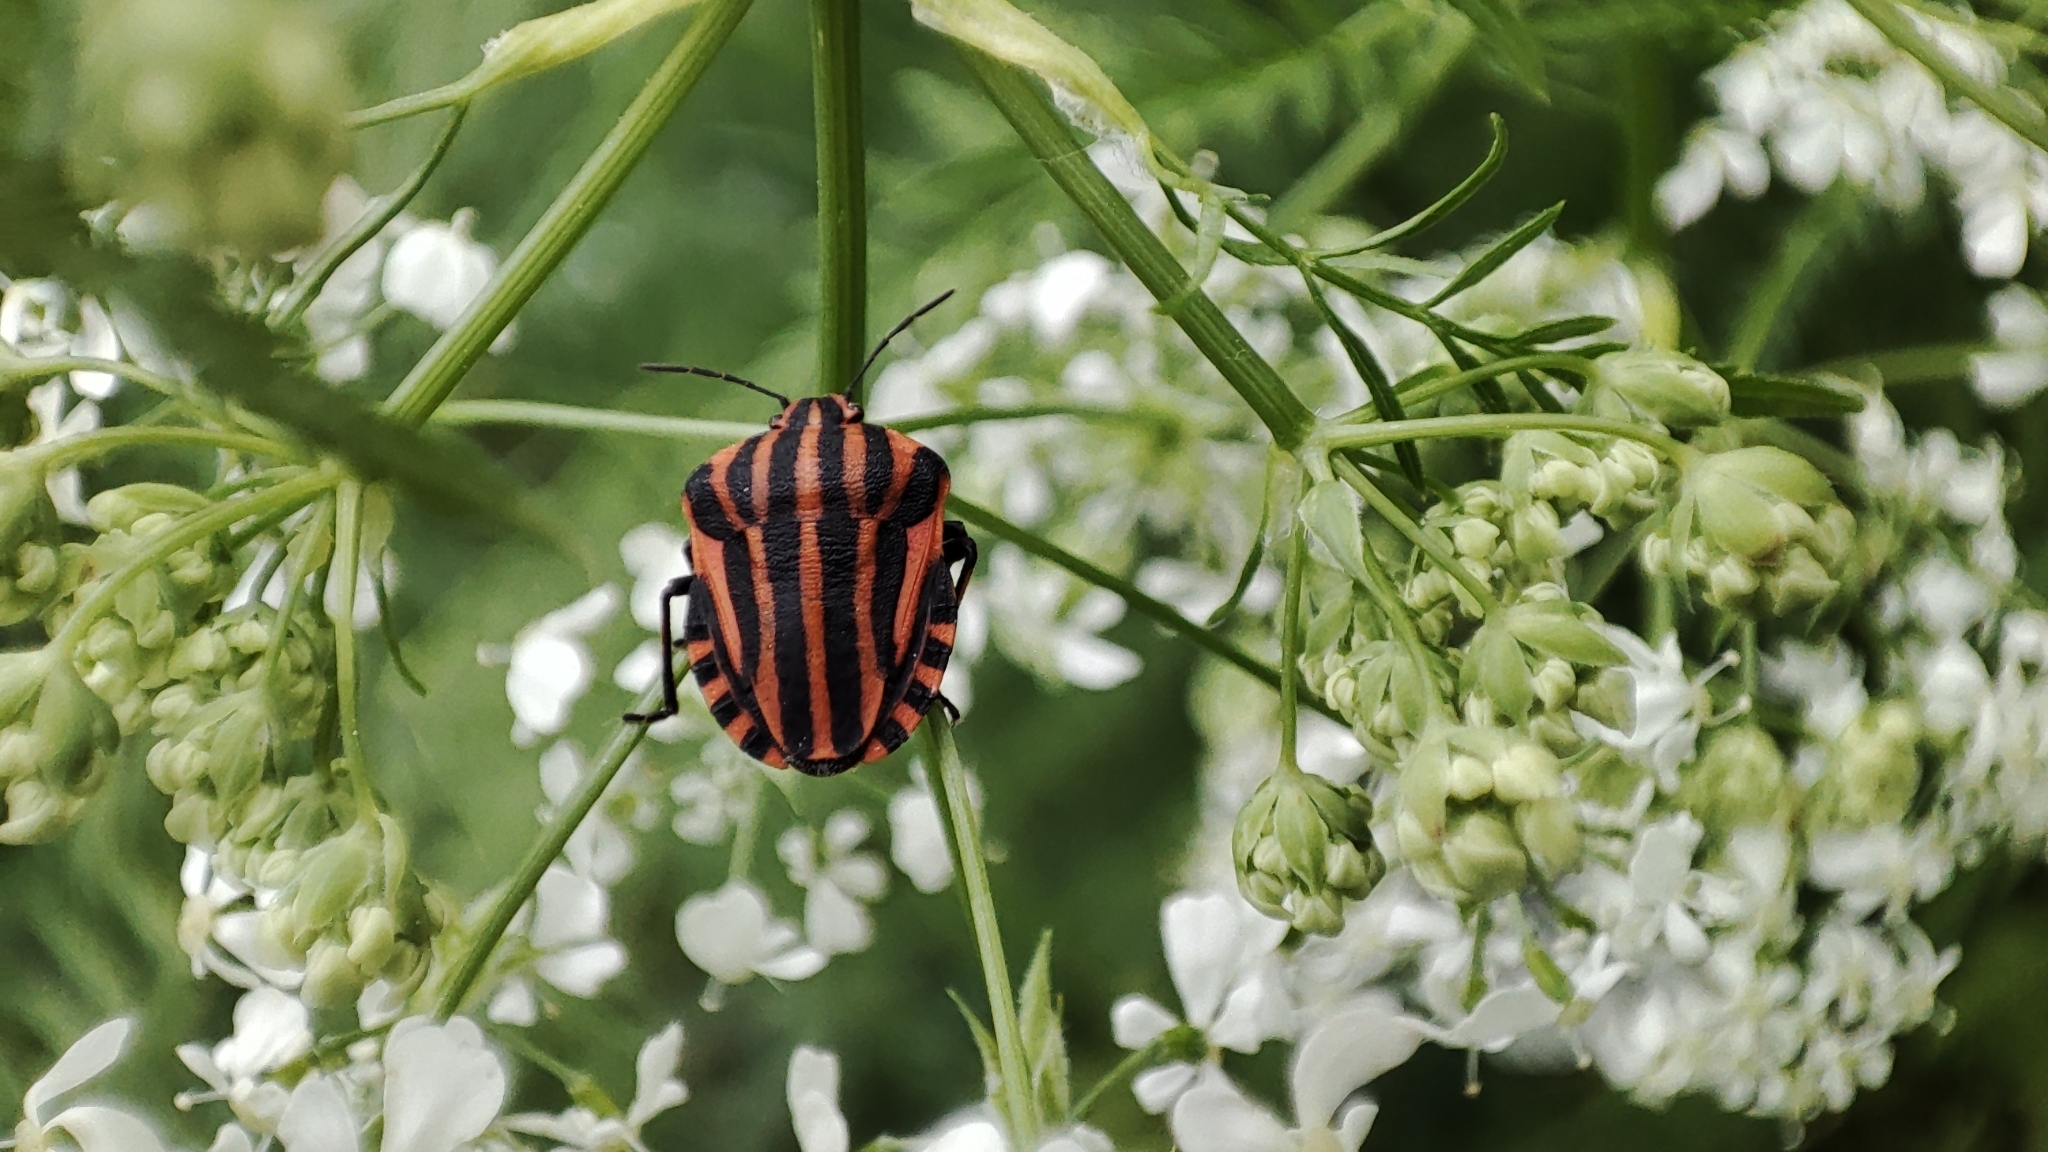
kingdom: Animalia
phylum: Arthropoda
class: Insecta
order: Hemiptera
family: Pentatomidae
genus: Graphosoma
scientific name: Graphosoma italicum
